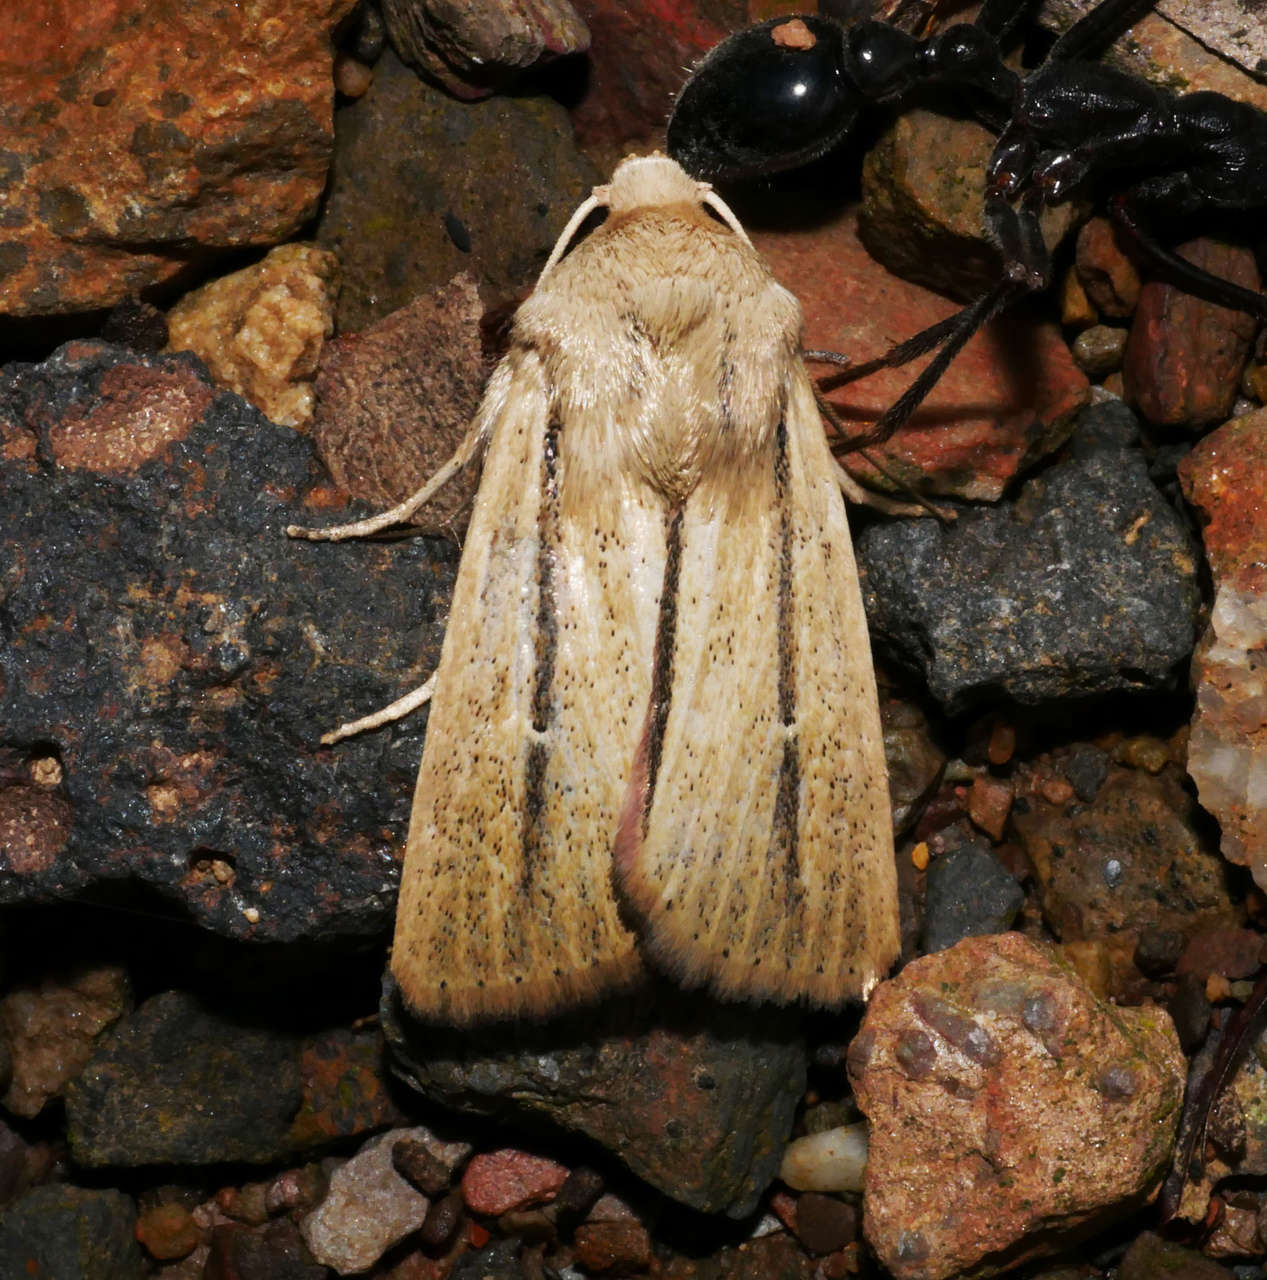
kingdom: Animalia
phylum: Arthropoda
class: Insecta
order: Lepidoptera
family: Noctuidae
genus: Leucania
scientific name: Leucania diatrecta
